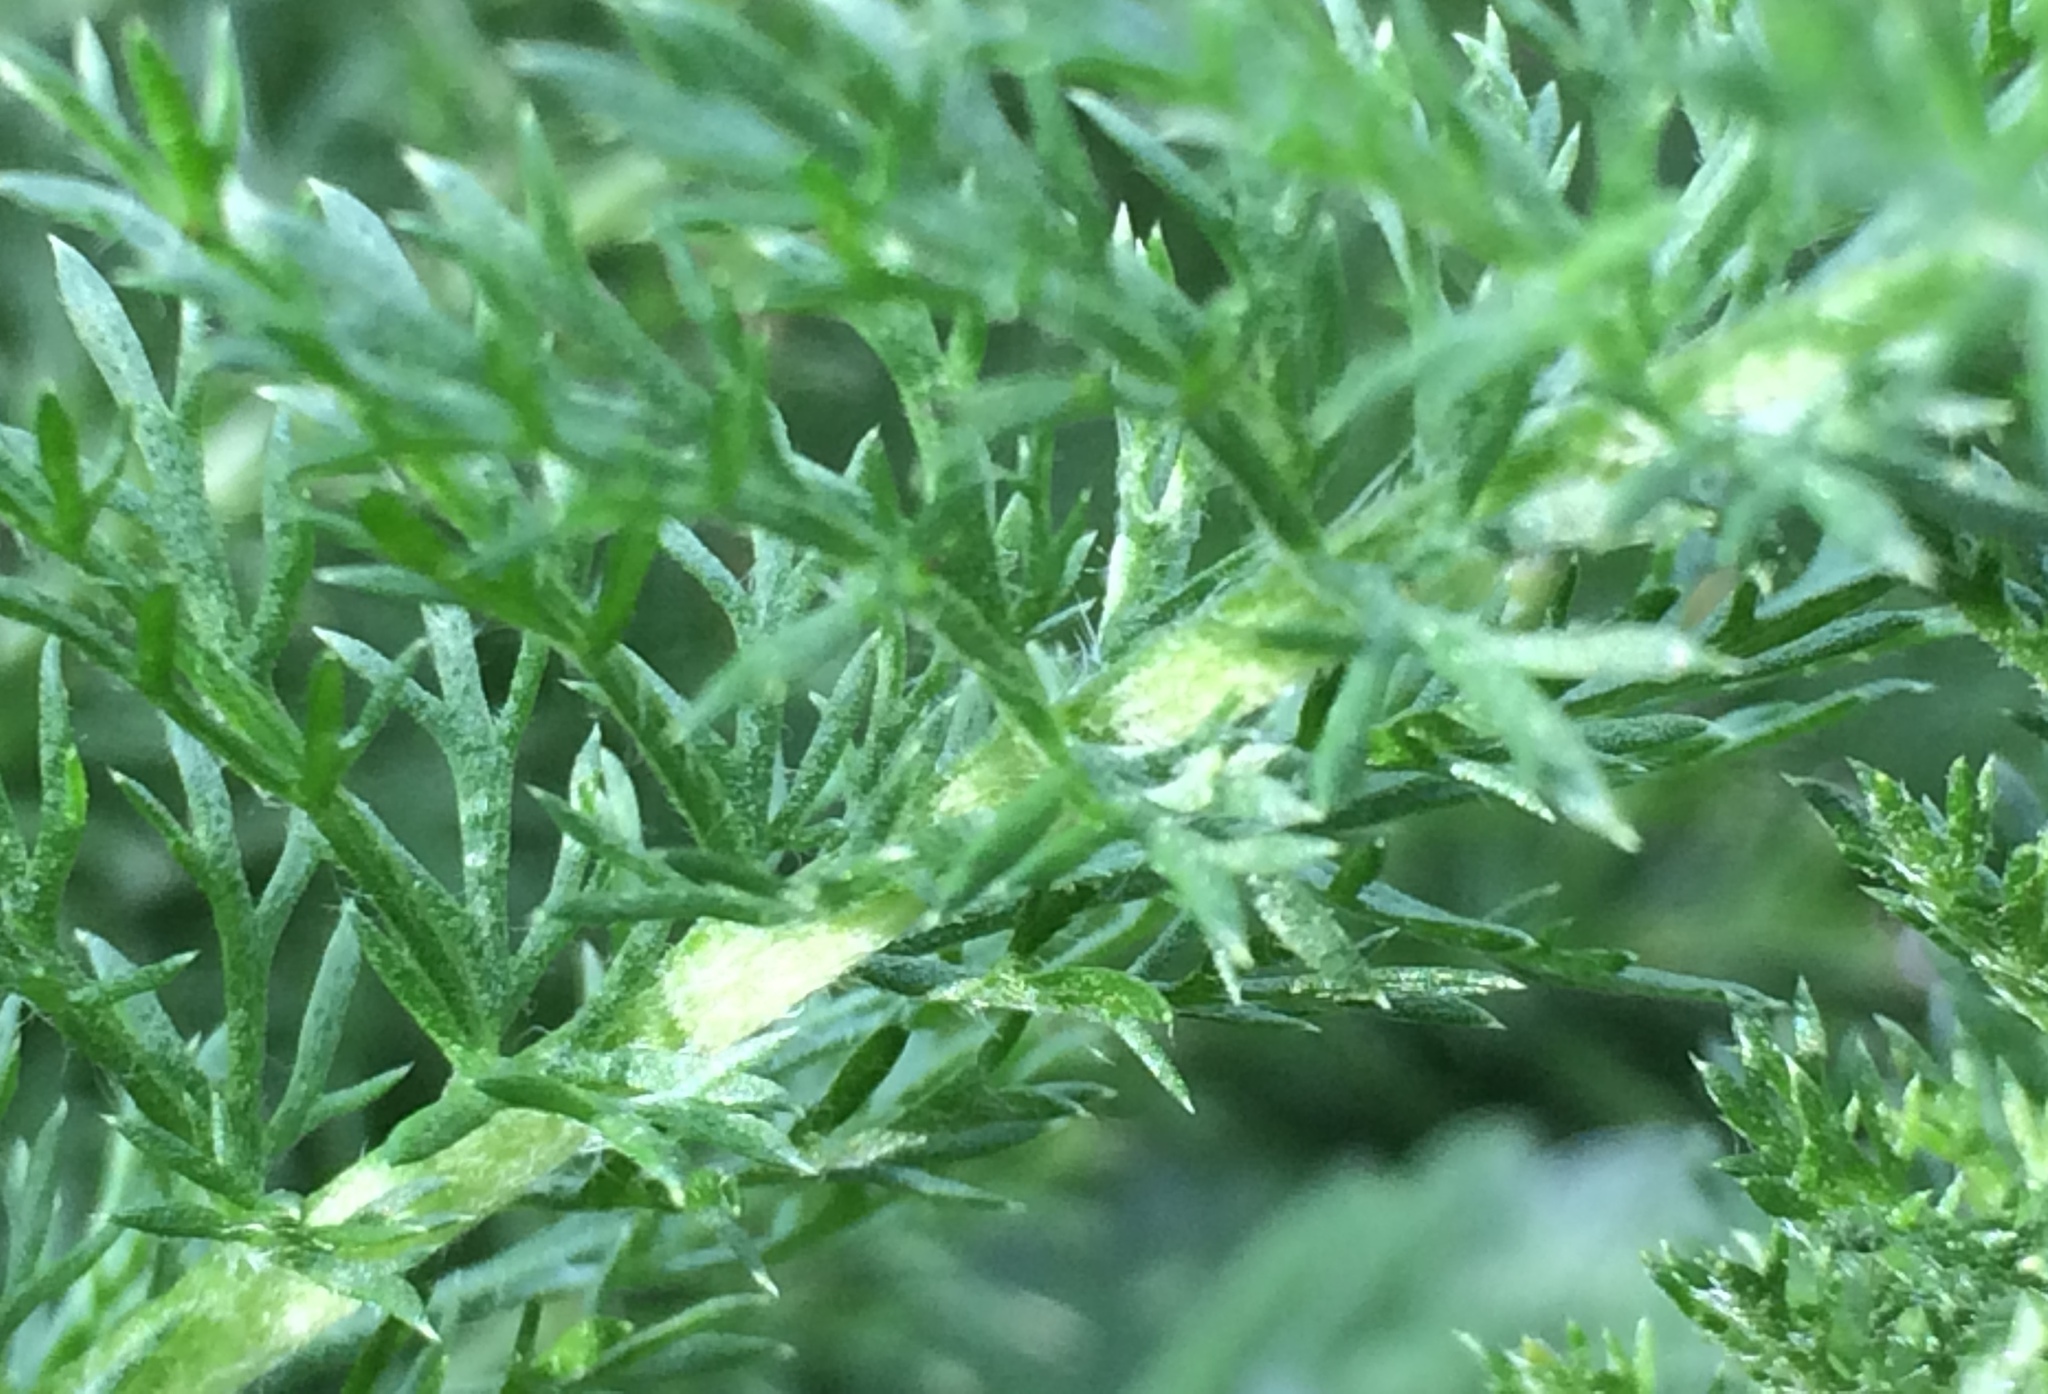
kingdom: Plantae
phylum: Tracheophyta
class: Magnoliopsida
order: Asterales
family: Asteraceae
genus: Achillea
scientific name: Achillea millefolium
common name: Yarrow
